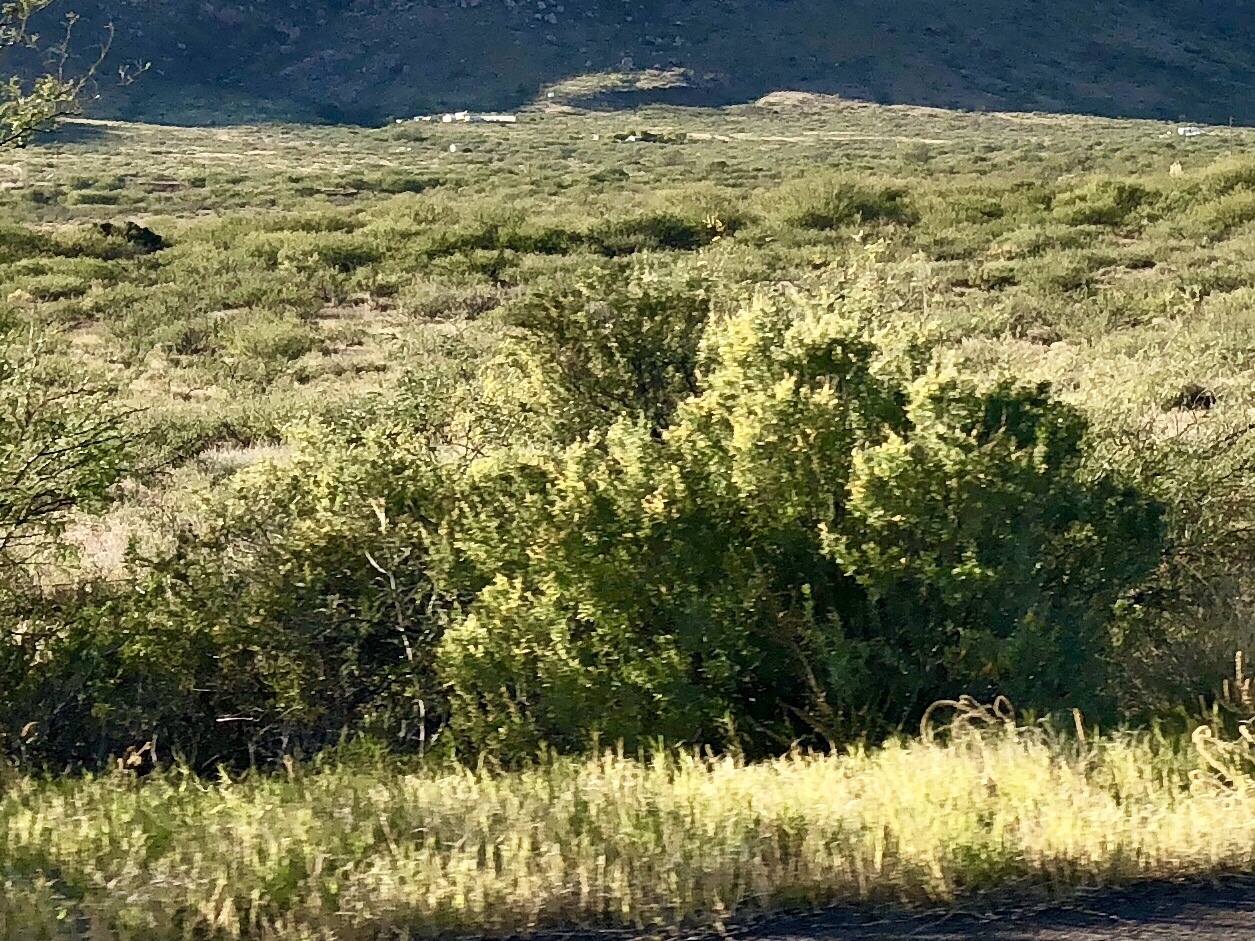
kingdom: Plantae
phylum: Tracheophyta
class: Magnoliopsida
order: Asterales
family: Asteraceae
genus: Baccharis
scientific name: Baccharis sarothroides
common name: Desert-broom
